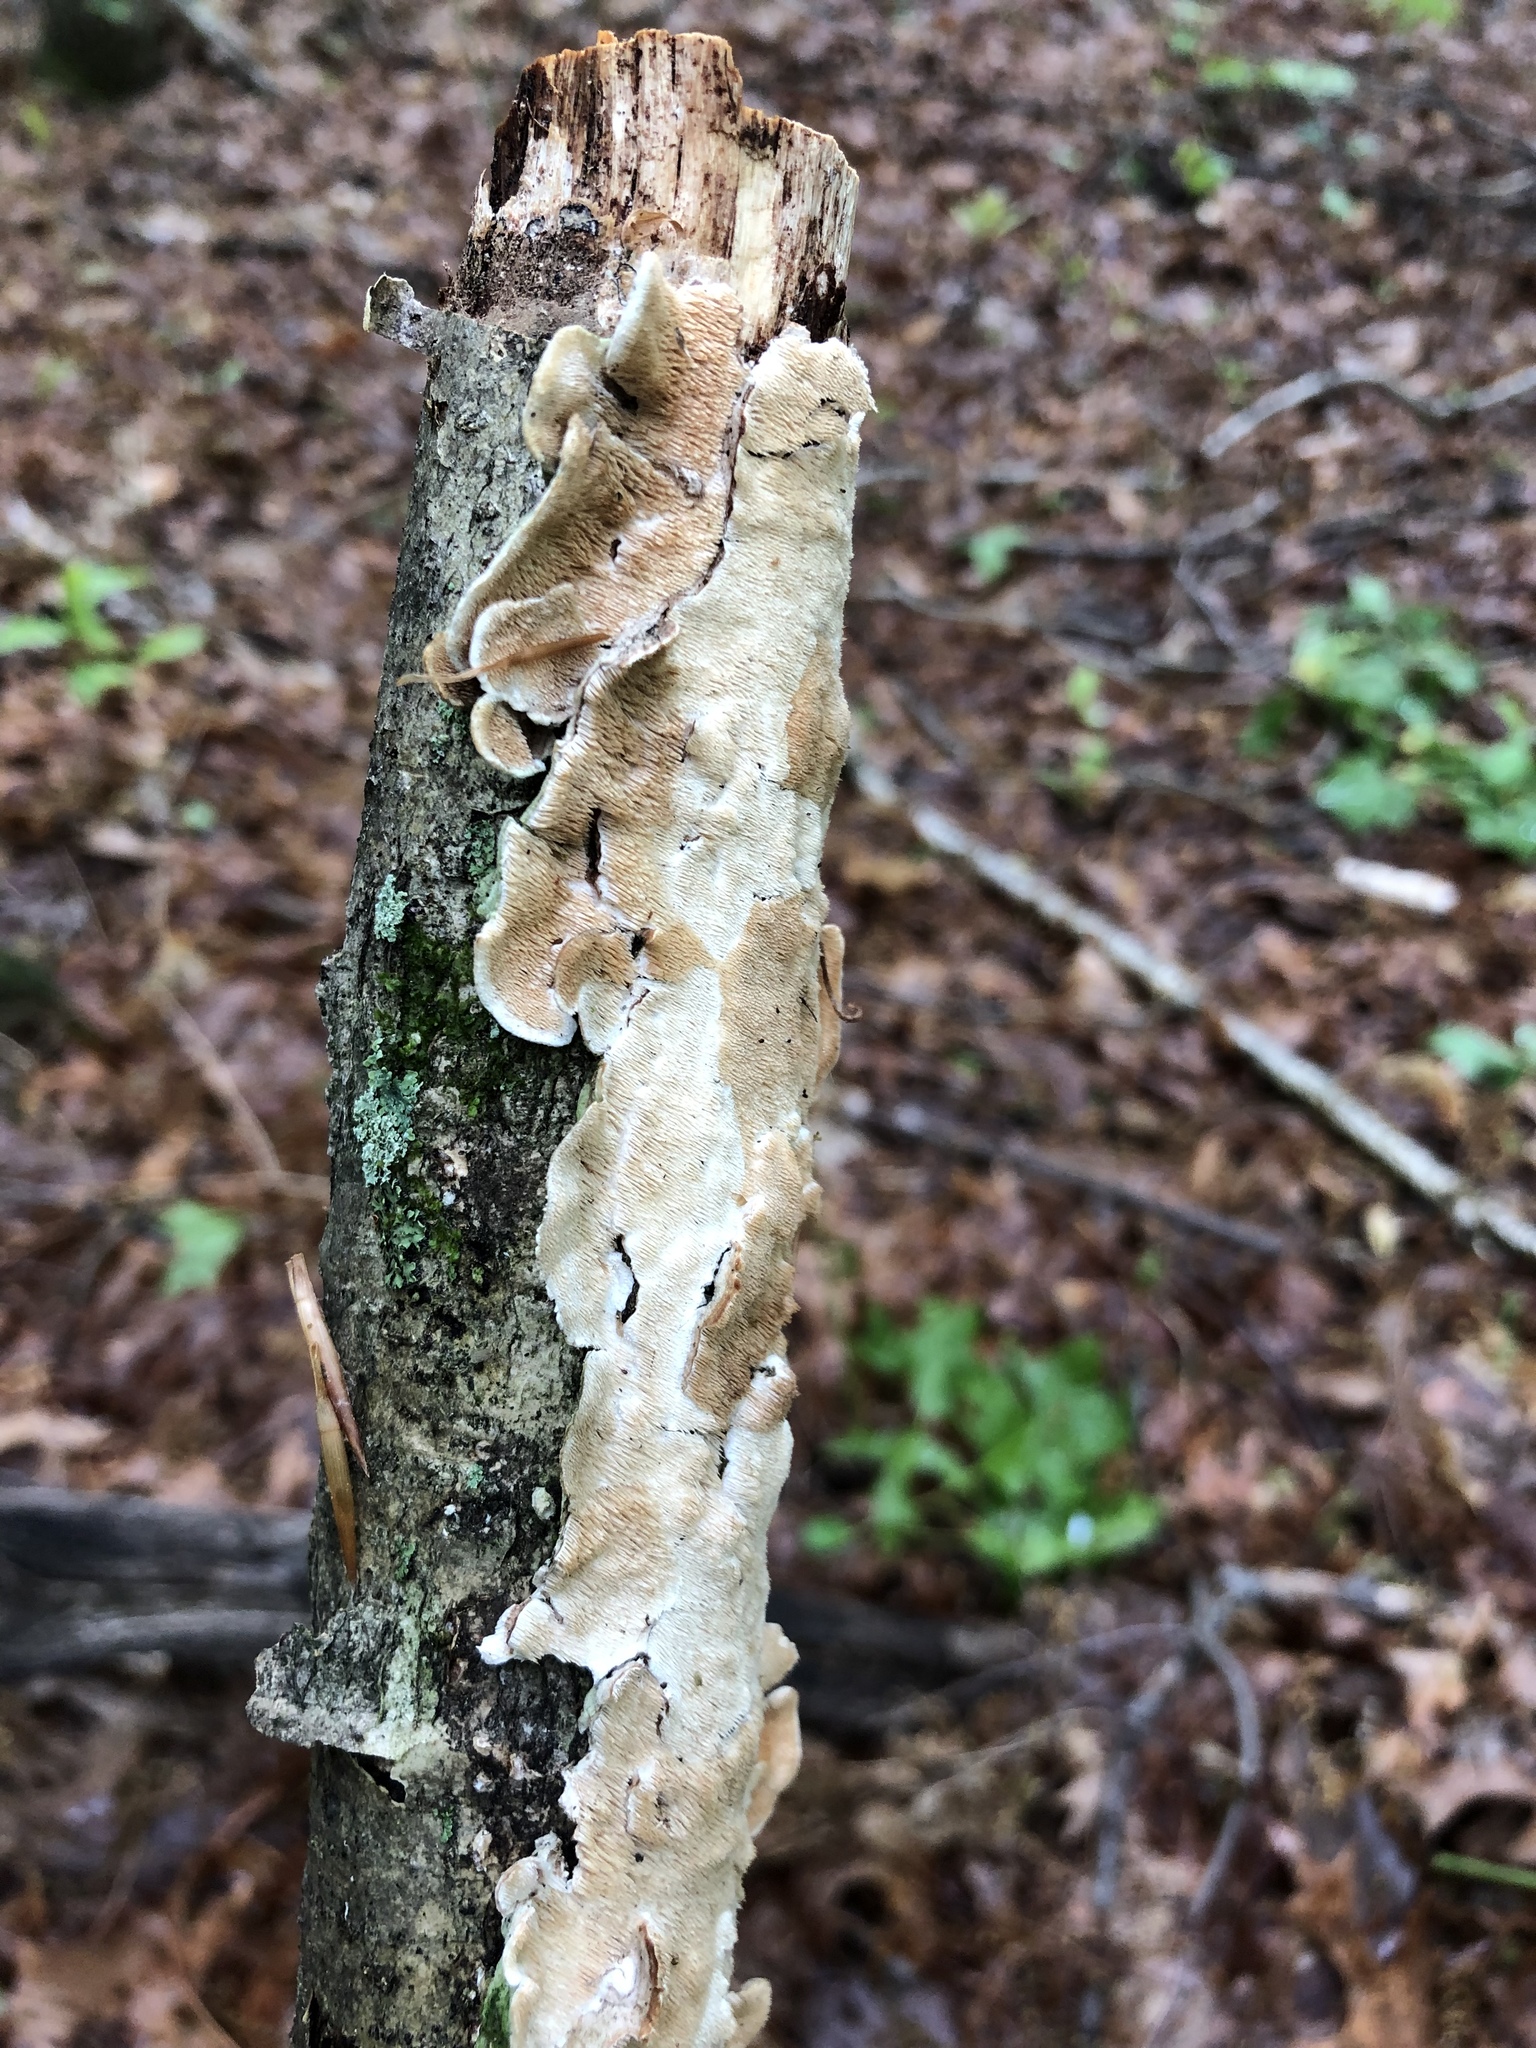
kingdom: Fungi
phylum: Basidiomycota
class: Agaricomycetes
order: Polyporales
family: Steccherinaceae
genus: Steccherinum
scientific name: Steccherinum ochraceum
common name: Ochre spreading tooth
